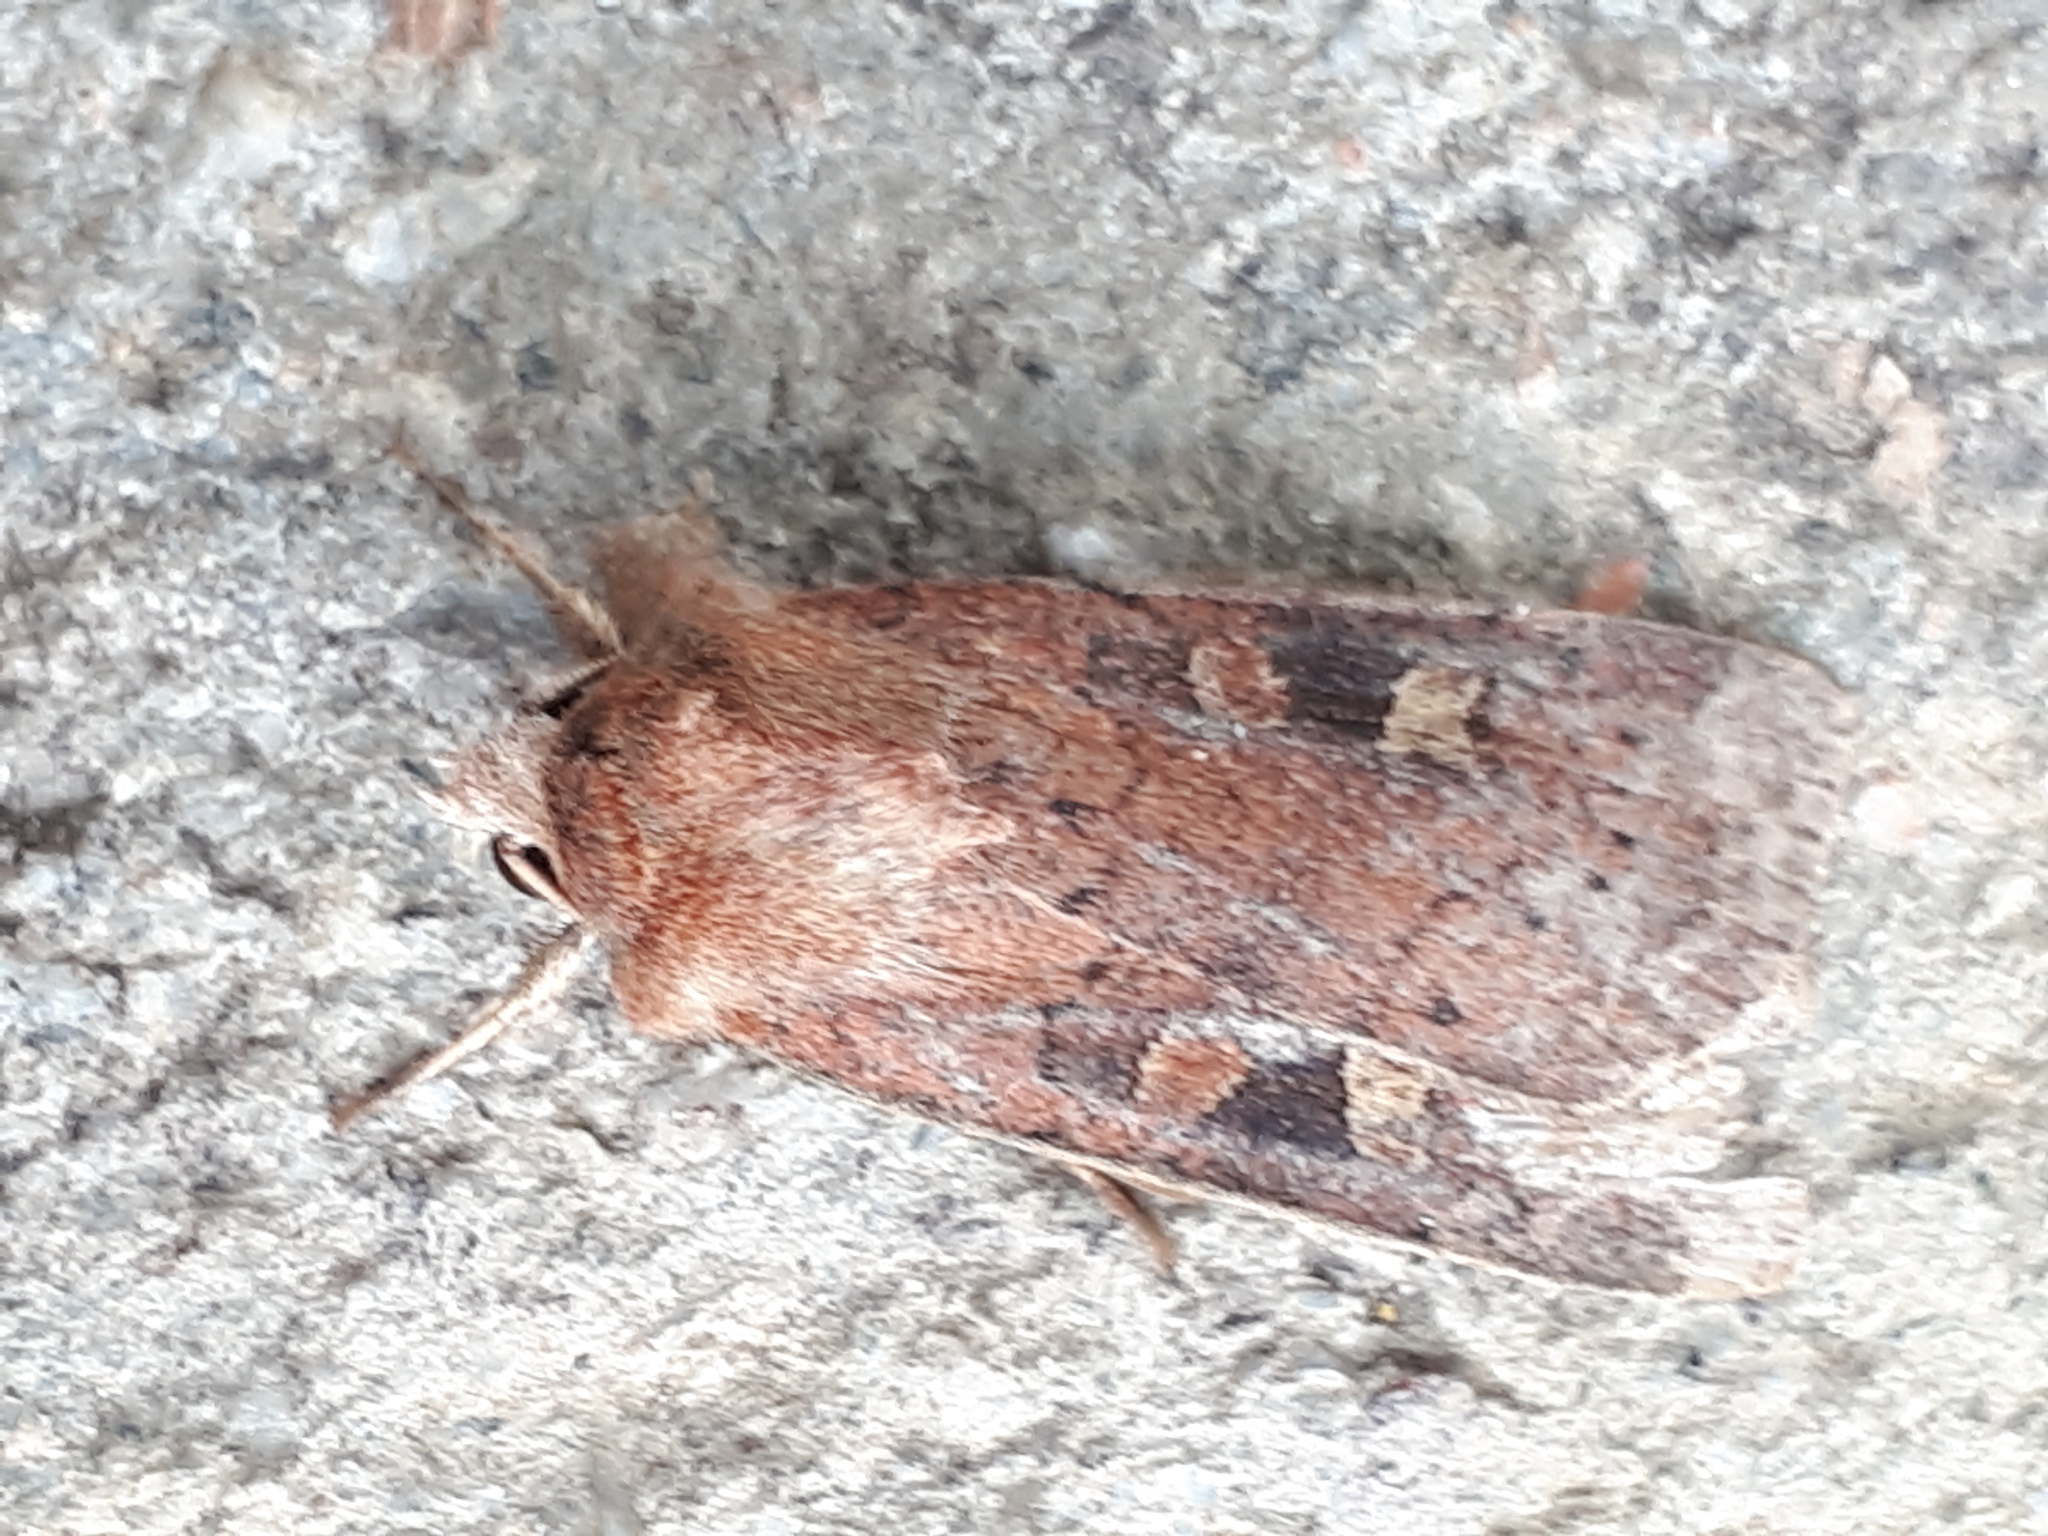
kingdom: Animalia
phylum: Arthropoda
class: Insecta
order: Lepidoptera
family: Noctuidae
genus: Xestia
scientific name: Xestia xanthographa
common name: Square-spot rustic
